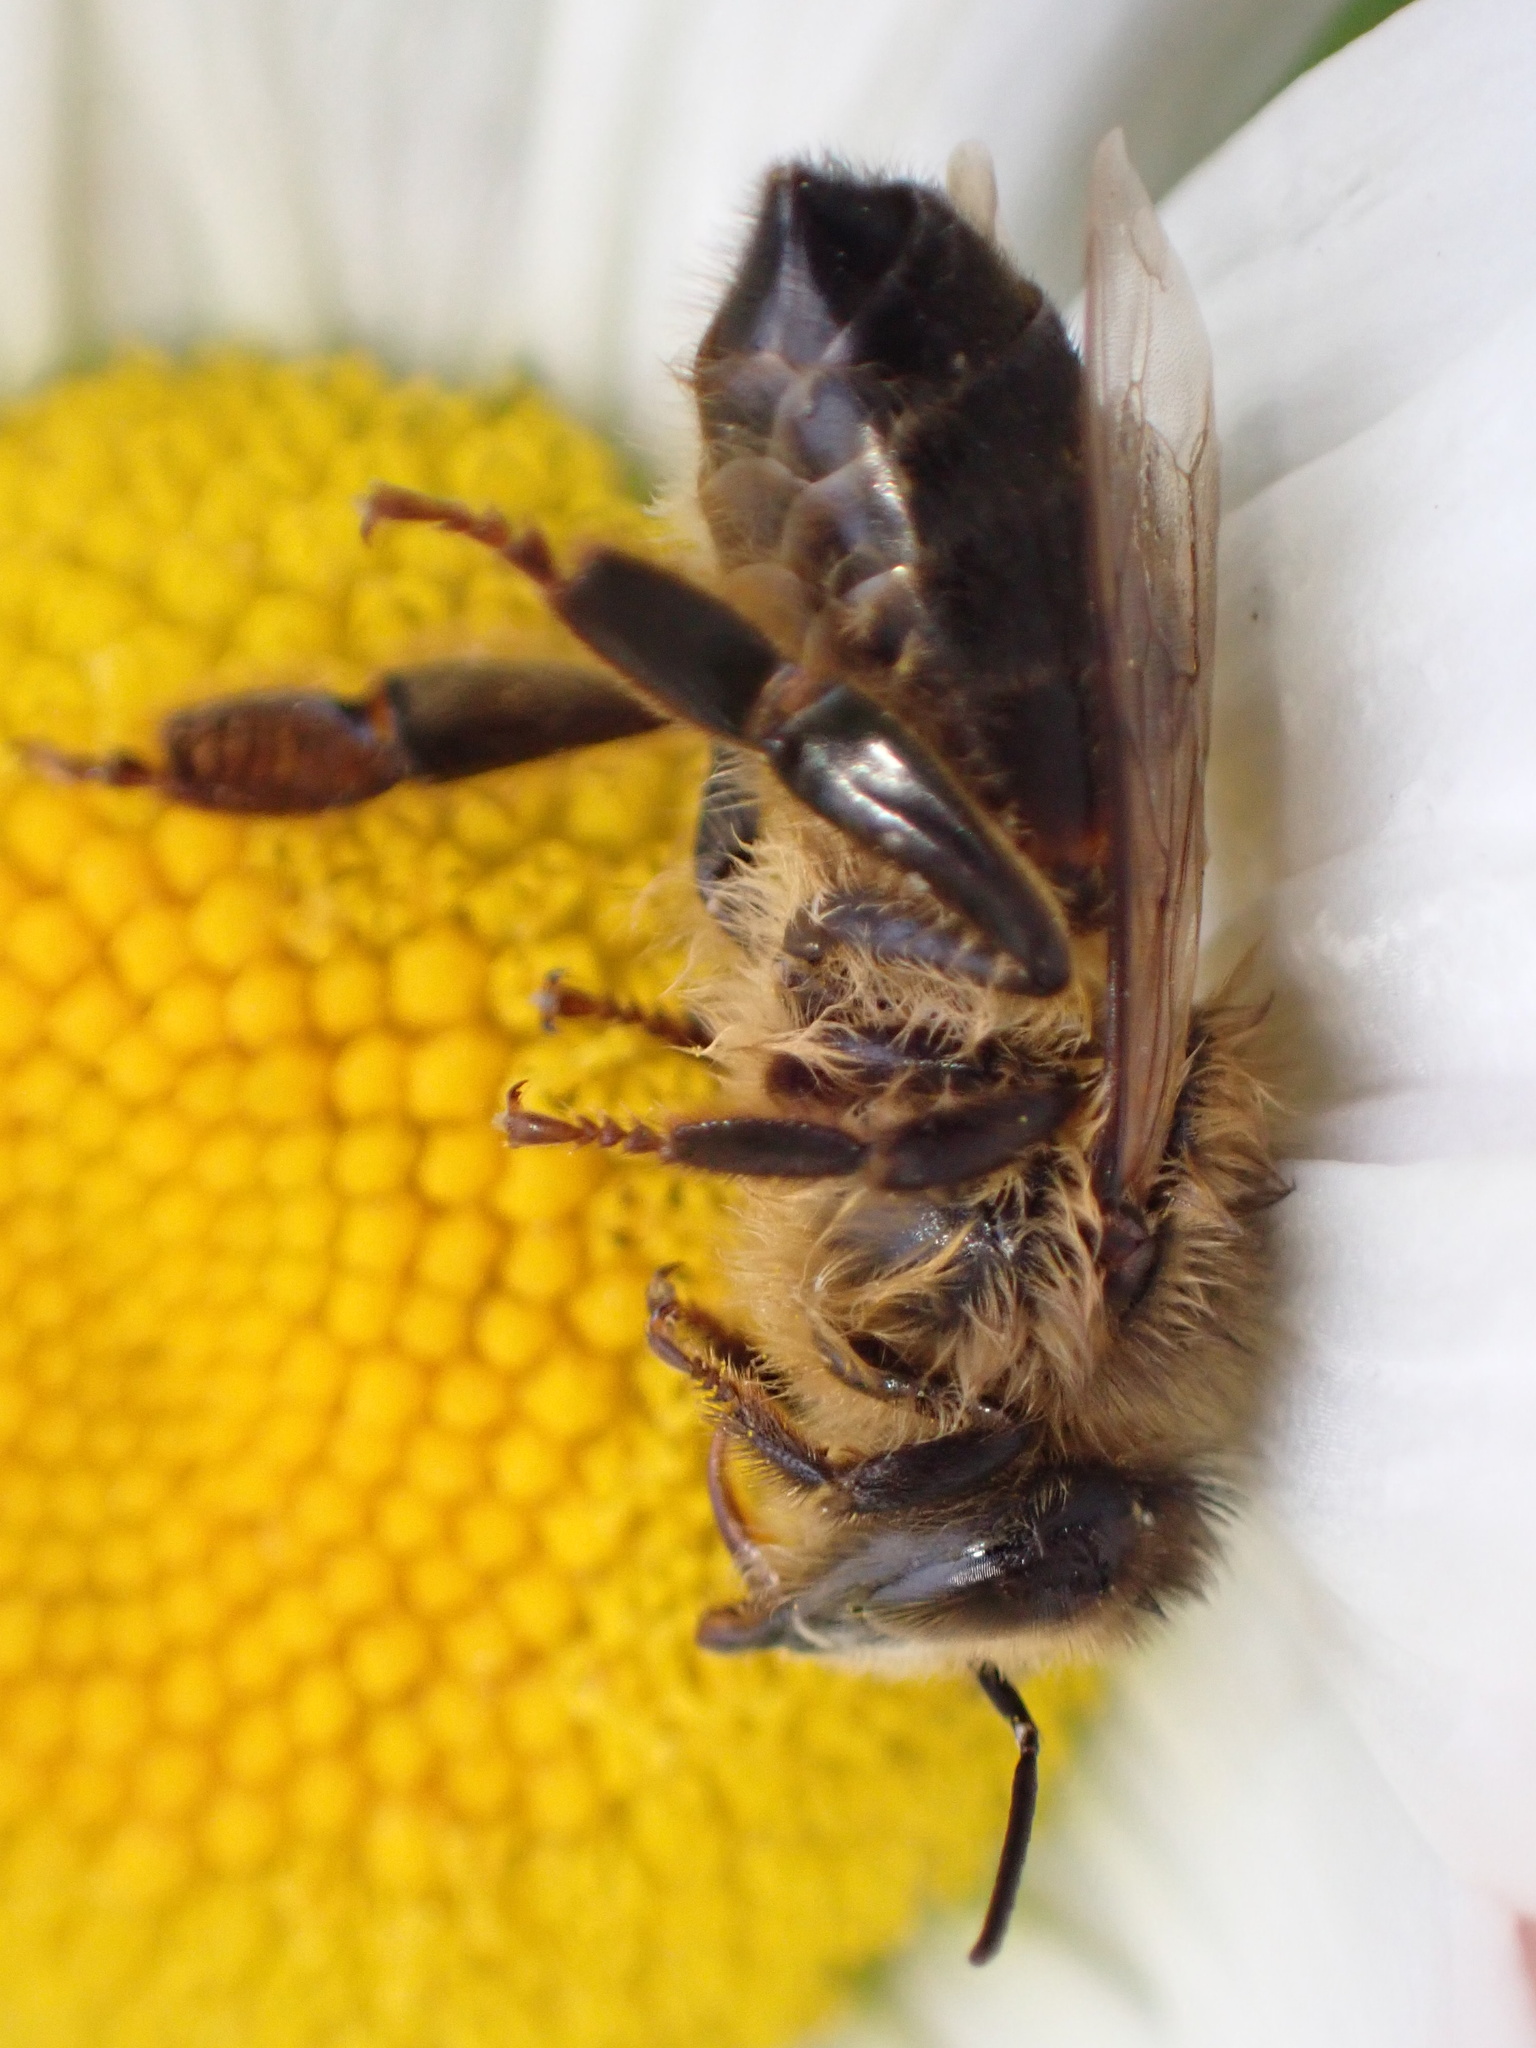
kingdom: Animalia
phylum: Arthropoda
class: Insecta
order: Hymenoptera
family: Apidae
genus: Apis
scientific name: Apis mellifera
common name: Honey bee
